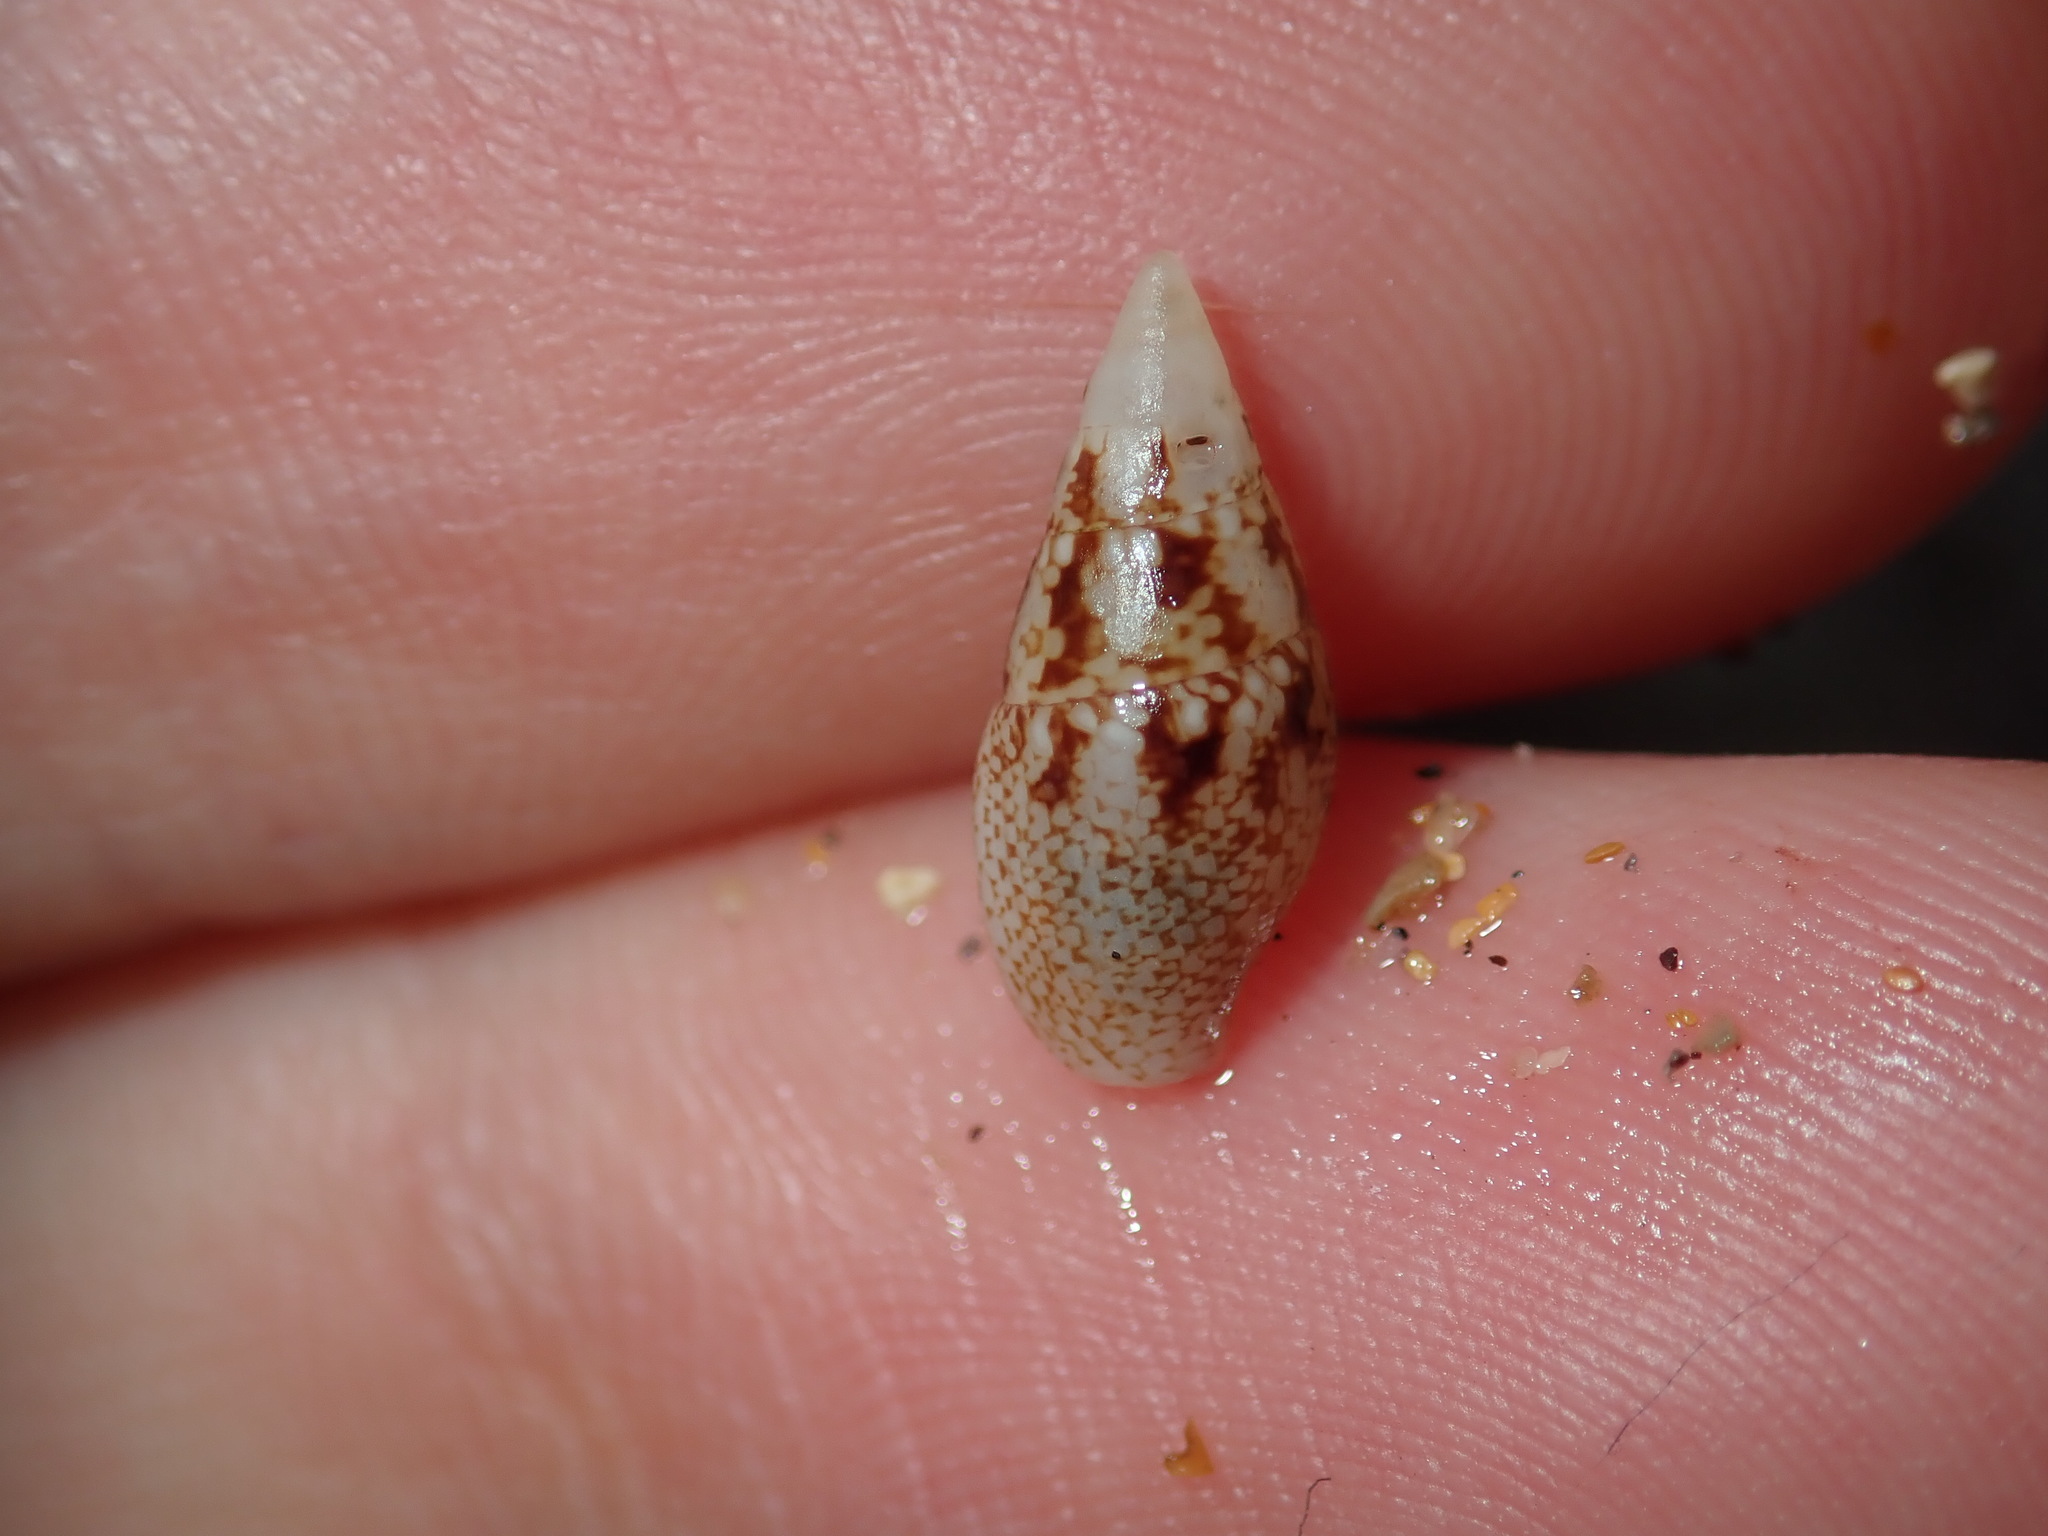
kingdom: Animalia
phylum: Mollusca
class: Gastropoda
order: Neogastropoda
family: Columbellidae
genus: Mitrella
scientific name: Mitrella tayloriana
